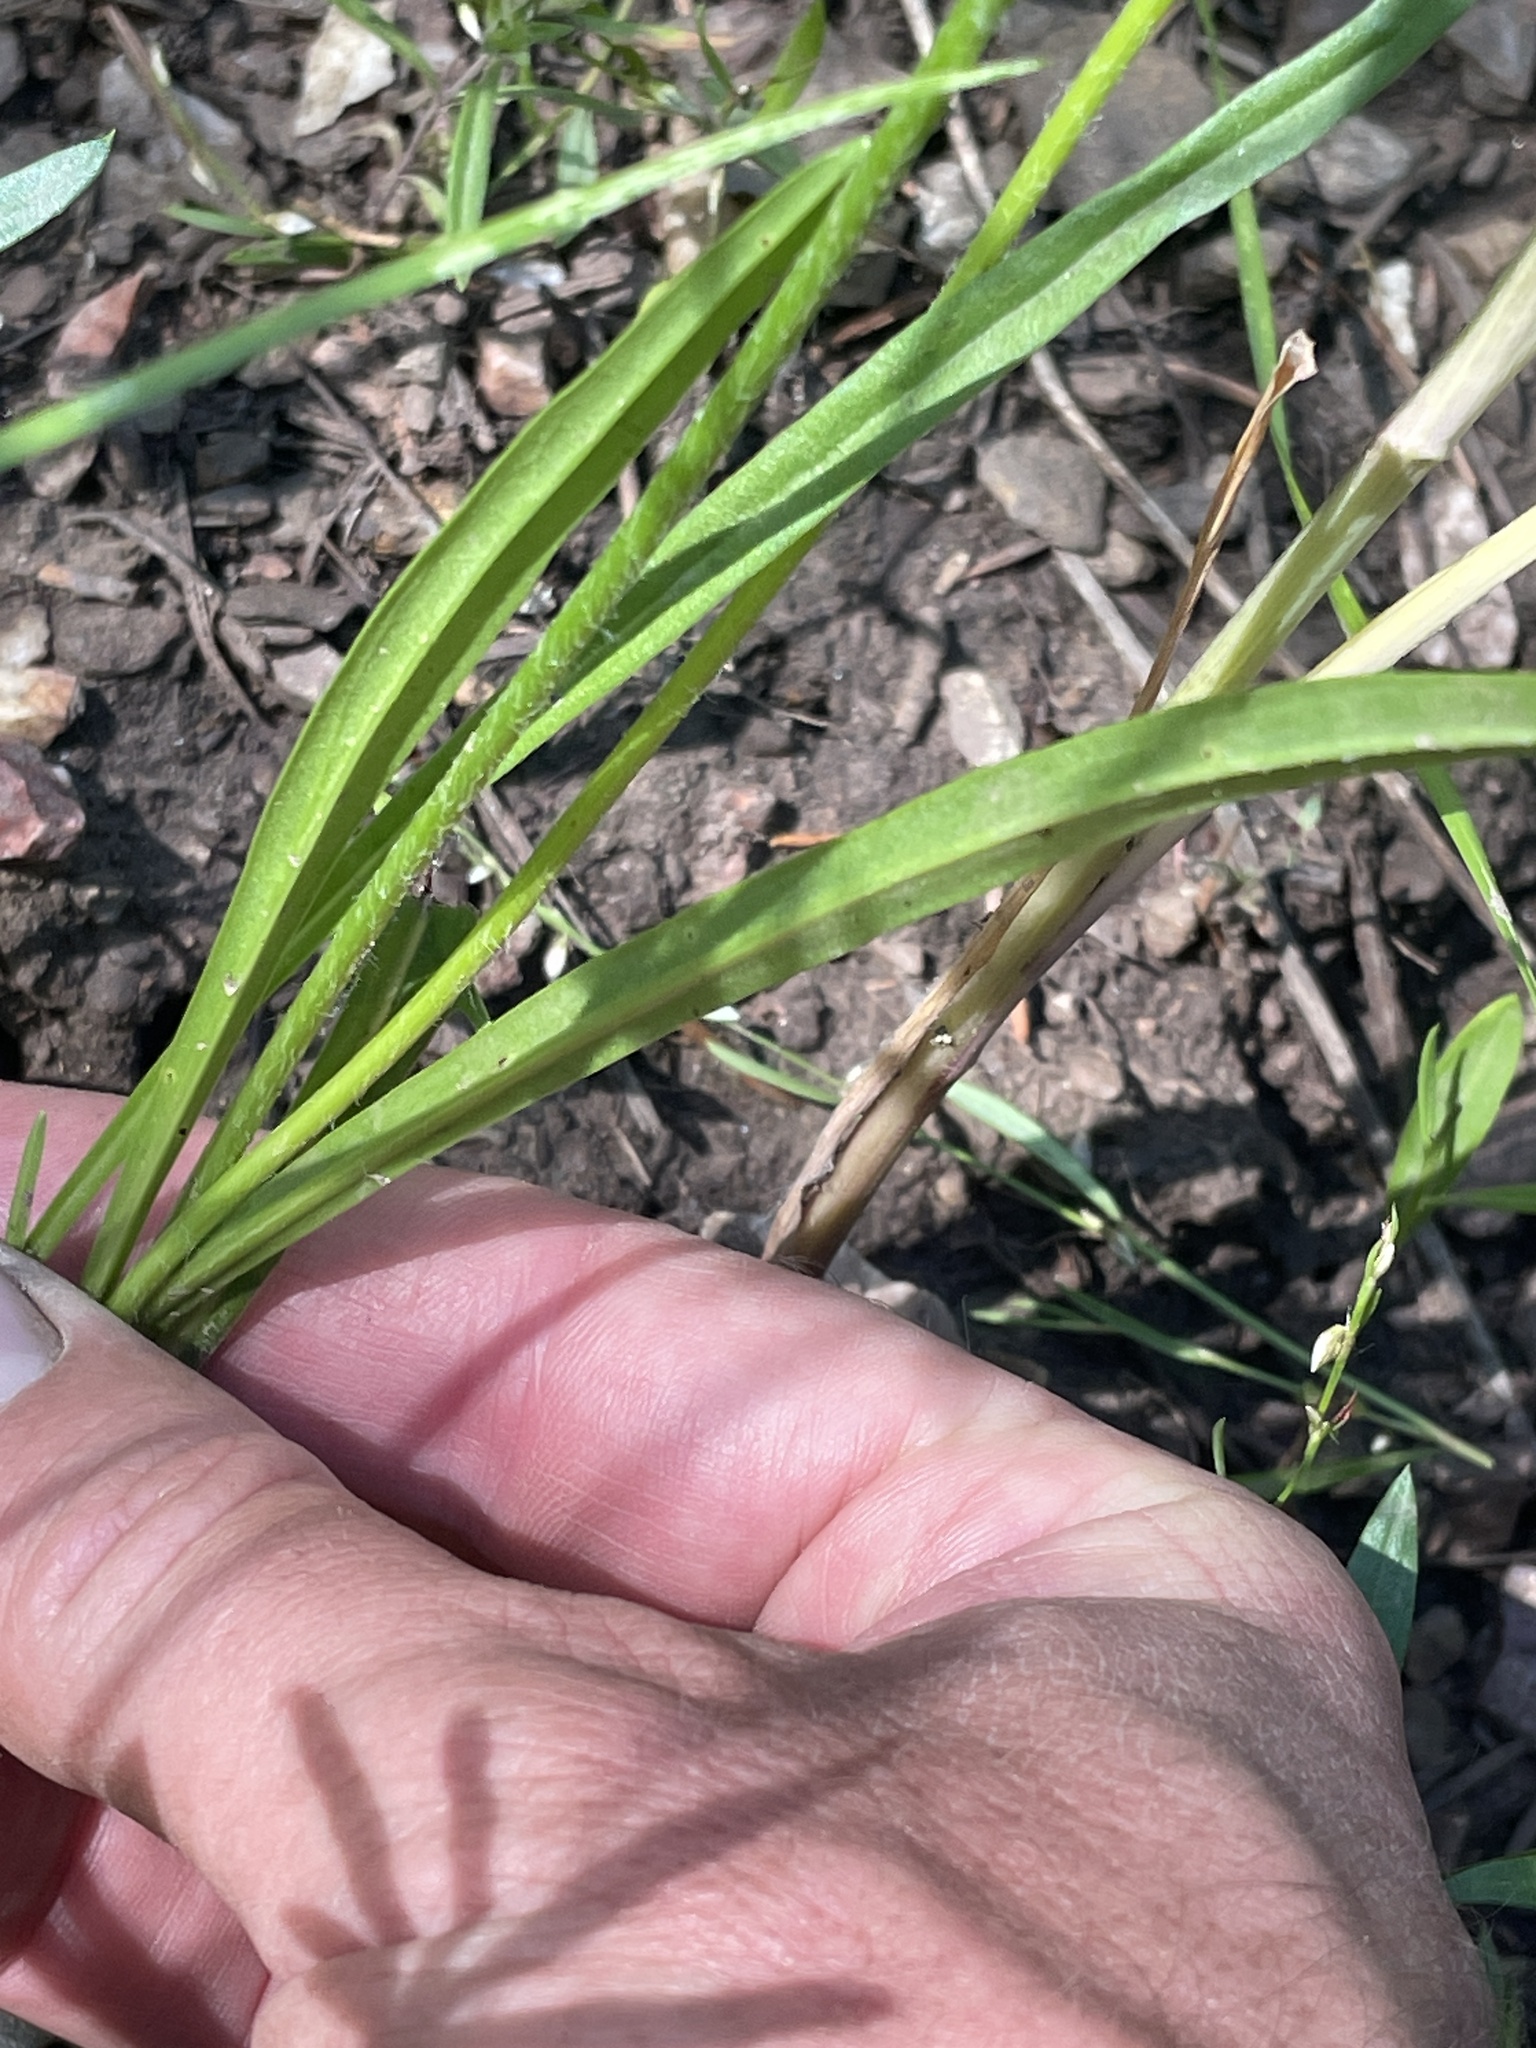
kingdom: Plantae
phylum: Tracheophyta
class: Magnoliopsida
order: Asterales
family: Asteraceae
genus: Agoseris
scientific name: Agoseris aurantiaca
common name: Mountain agoseris
